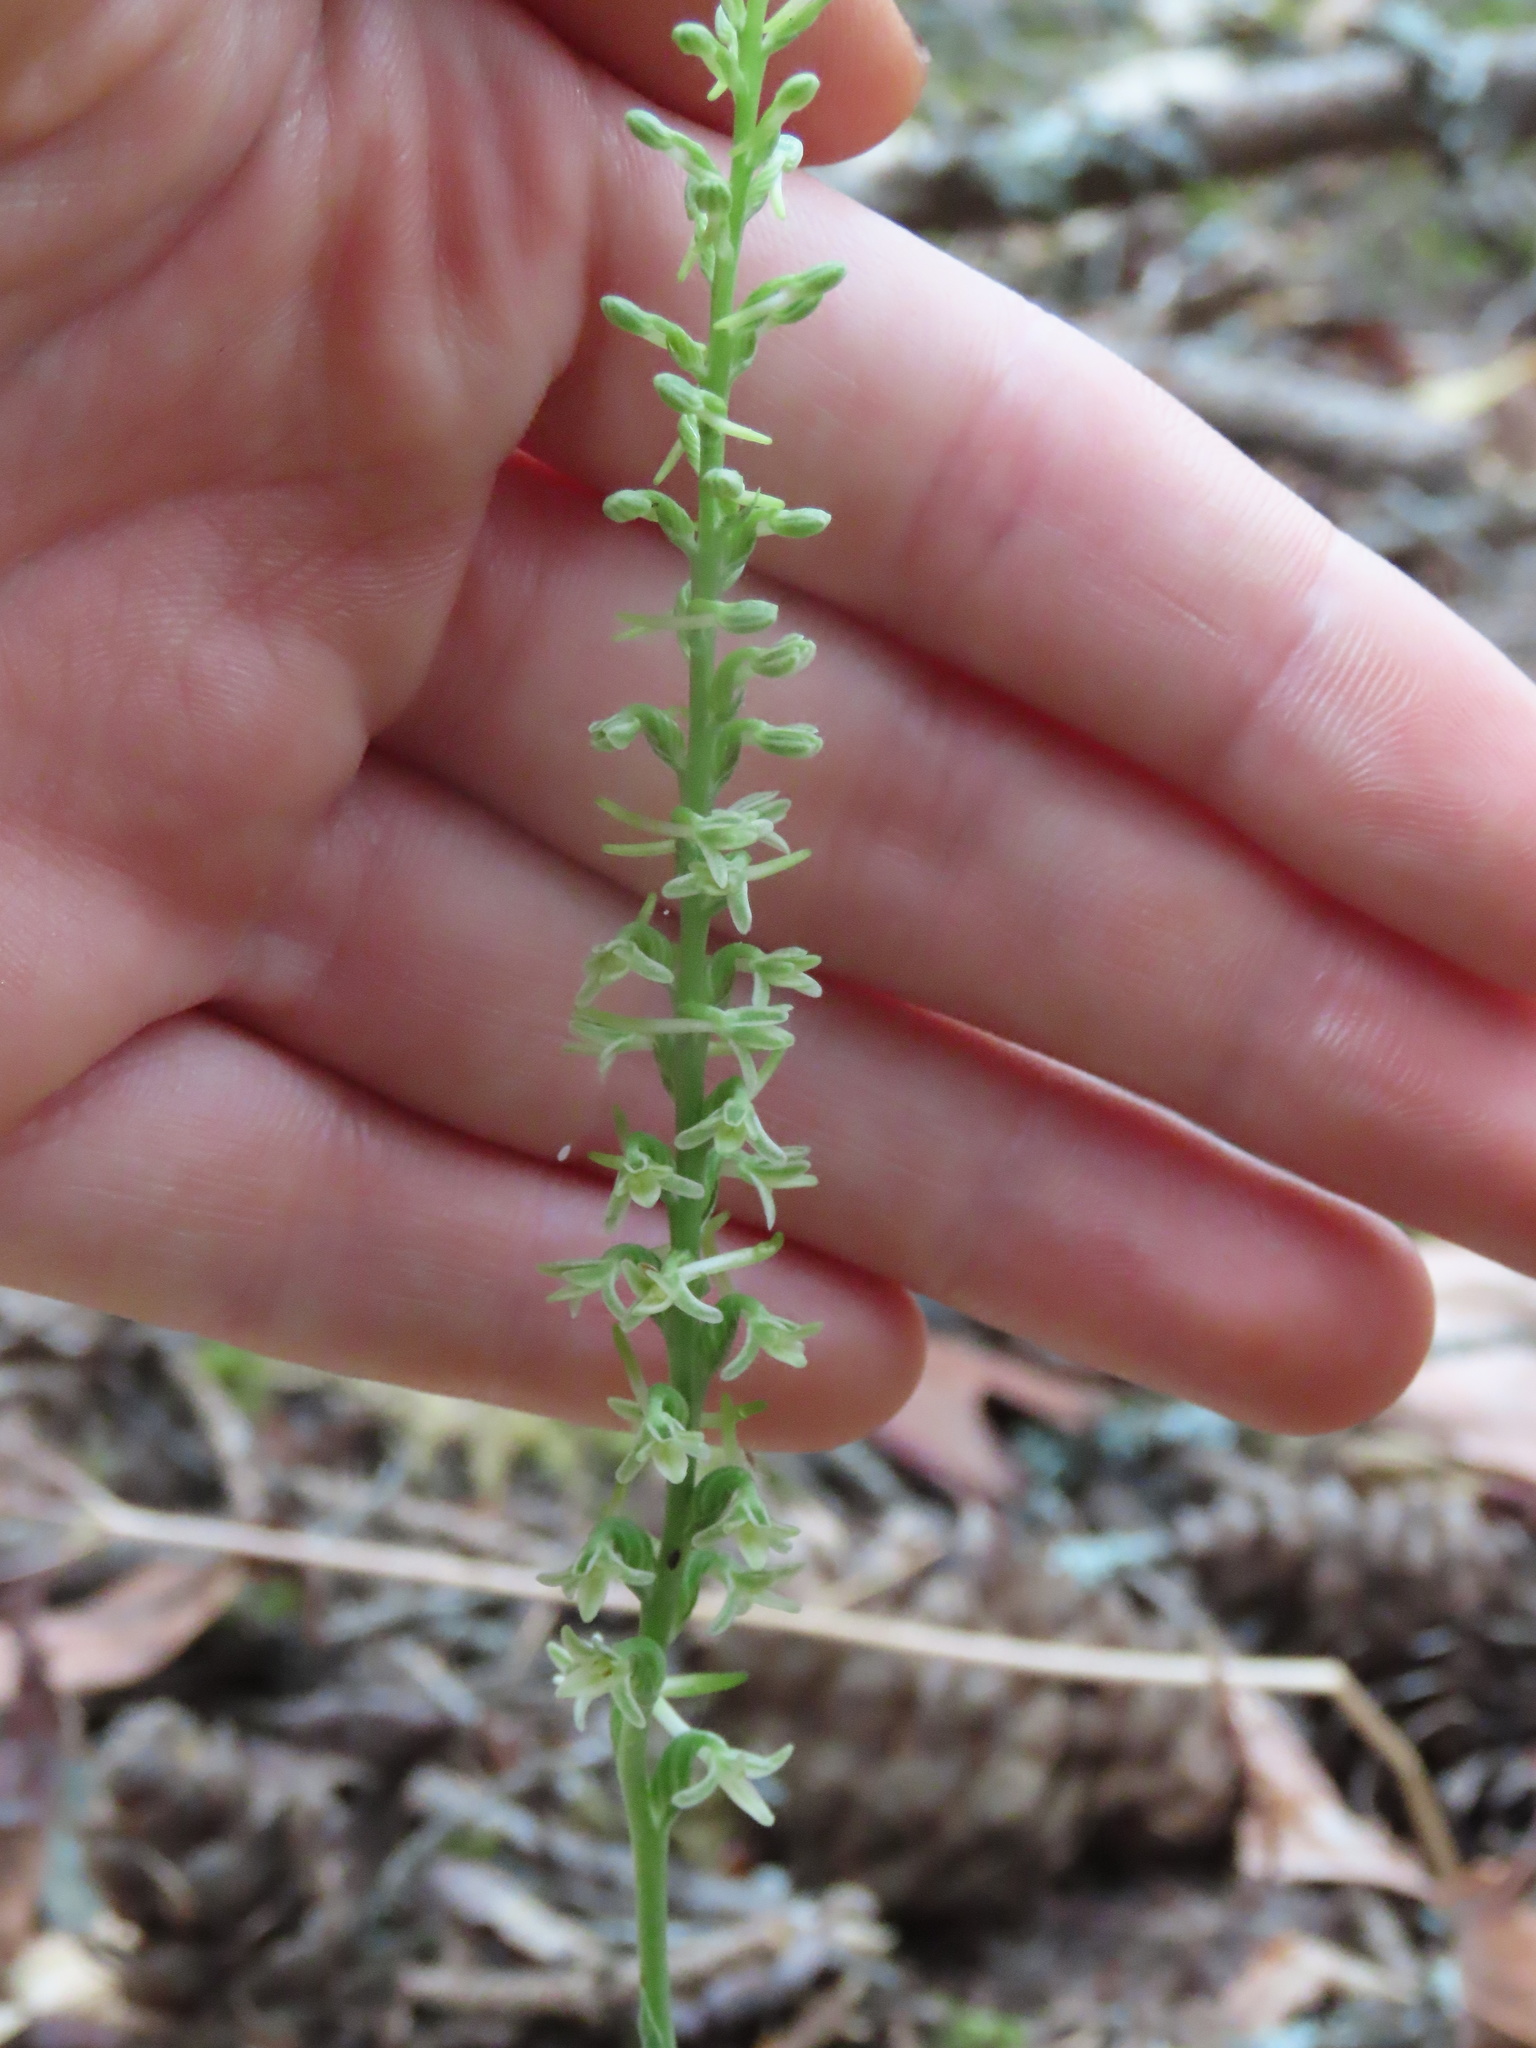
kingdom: Plantae
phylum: Tracheophyta
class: Liliopsida
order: Asparagales
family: Orchidaceae
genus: Platanthera
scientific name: Platanthera transversa
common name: Royal rein orchid
